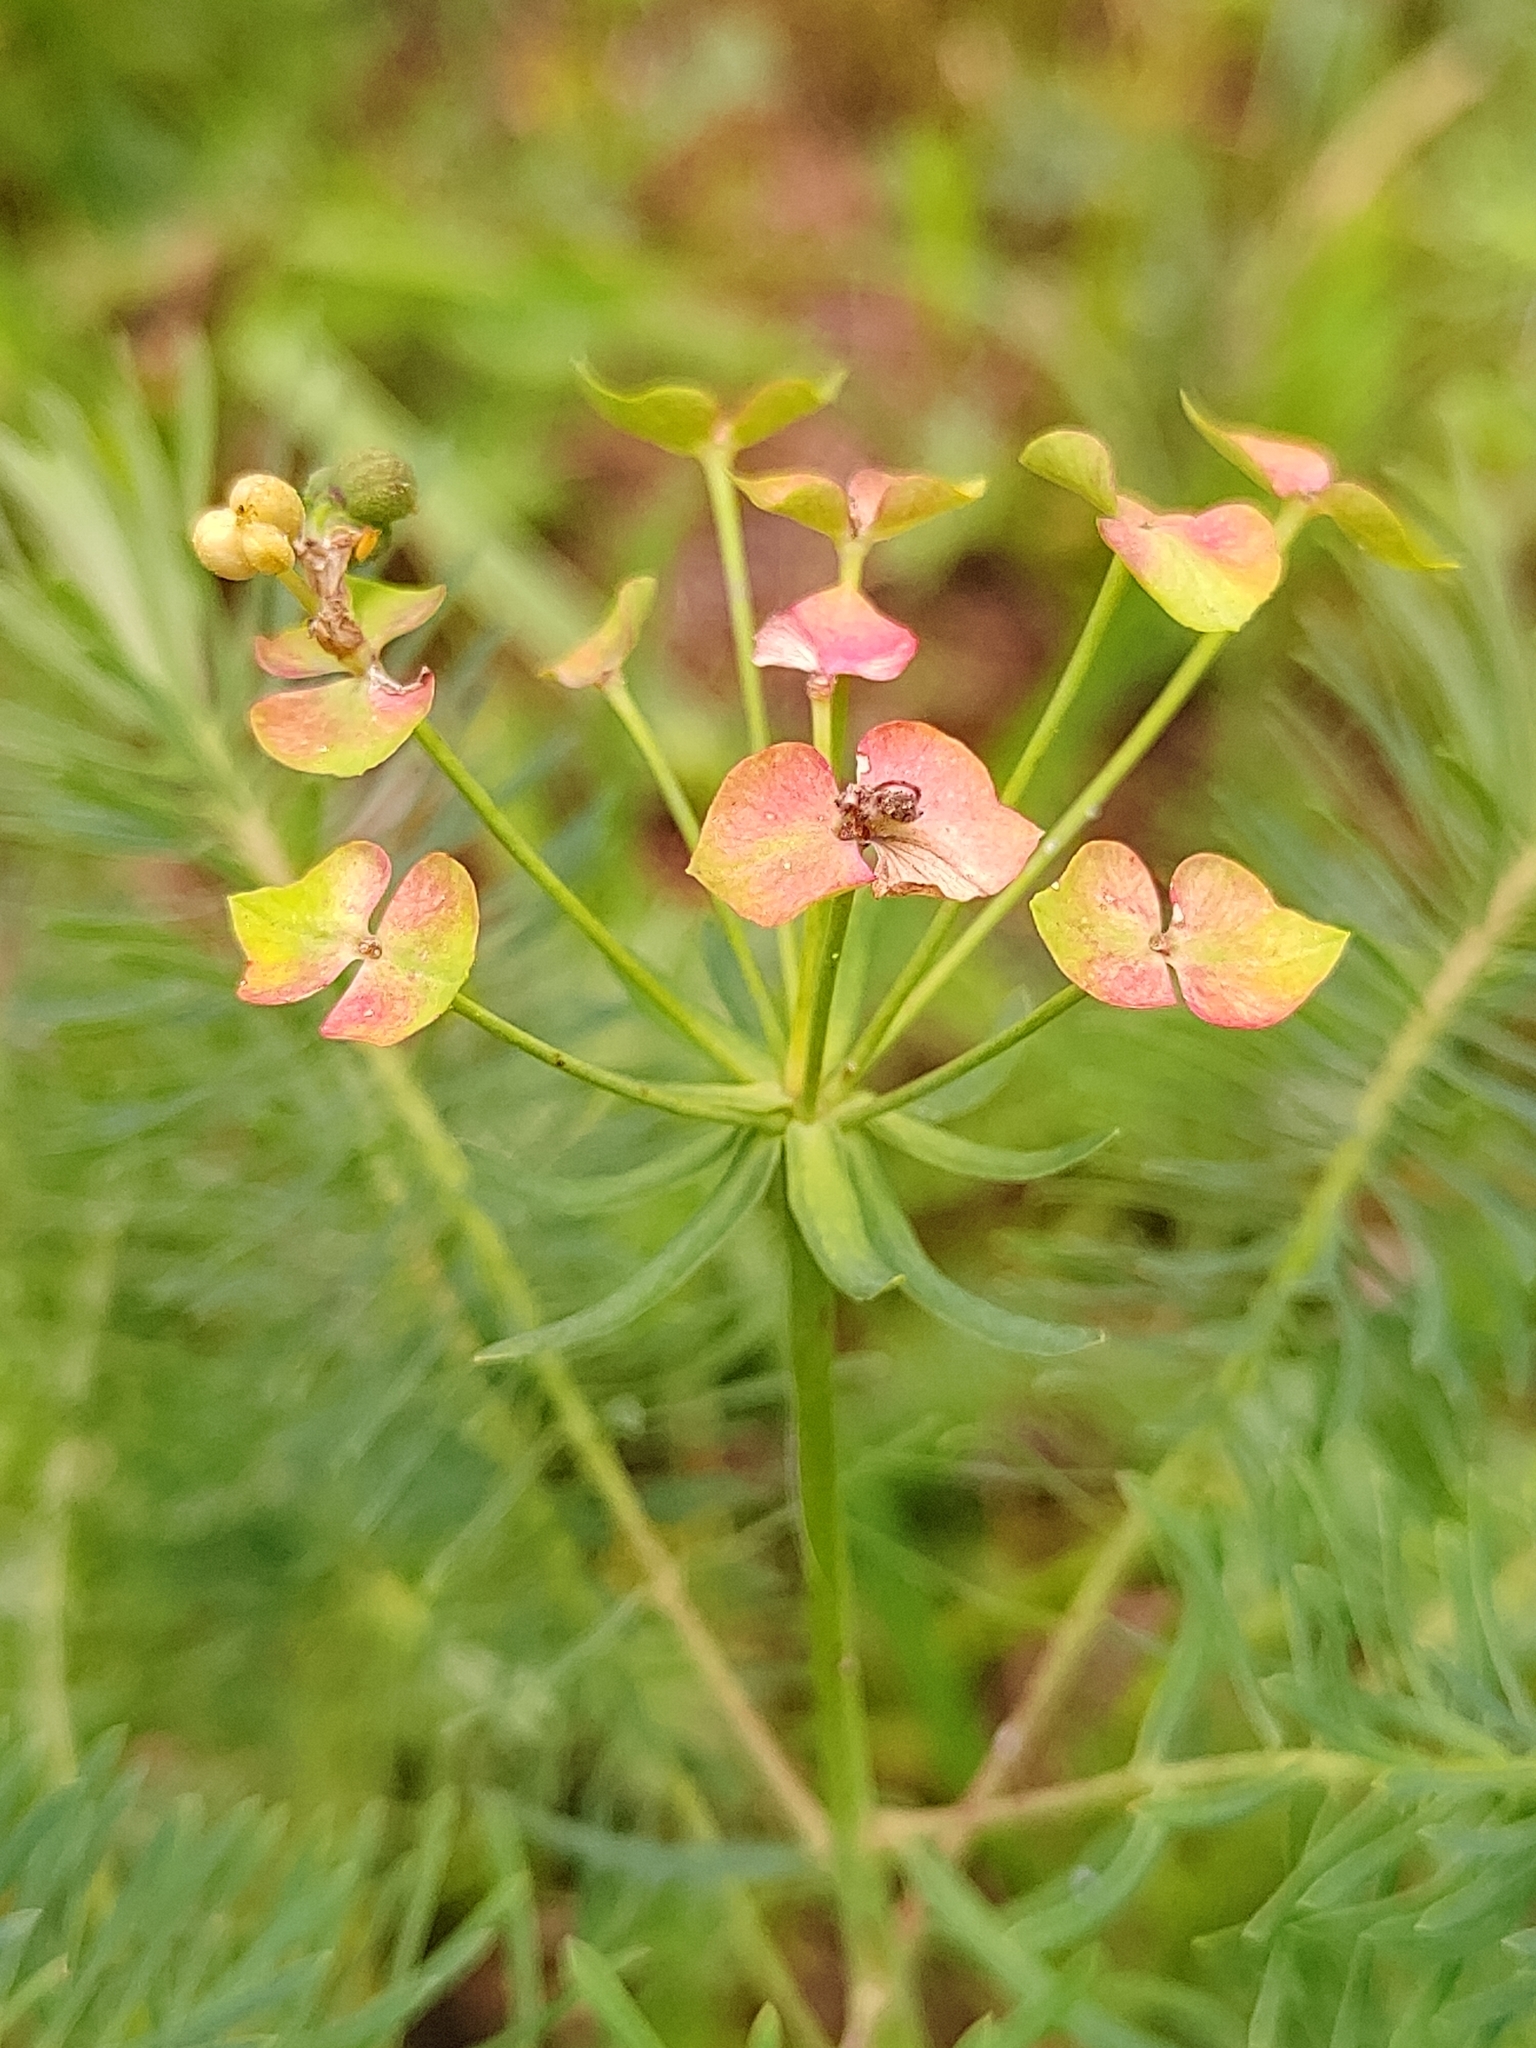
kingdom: Plantae
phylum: Tracheophyta
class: Magnoliopsida
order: Malpighiales
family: Euphorbiaceae
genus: Euphorbia
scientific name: Euphorbia cyparissias
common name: Cypress spurge
